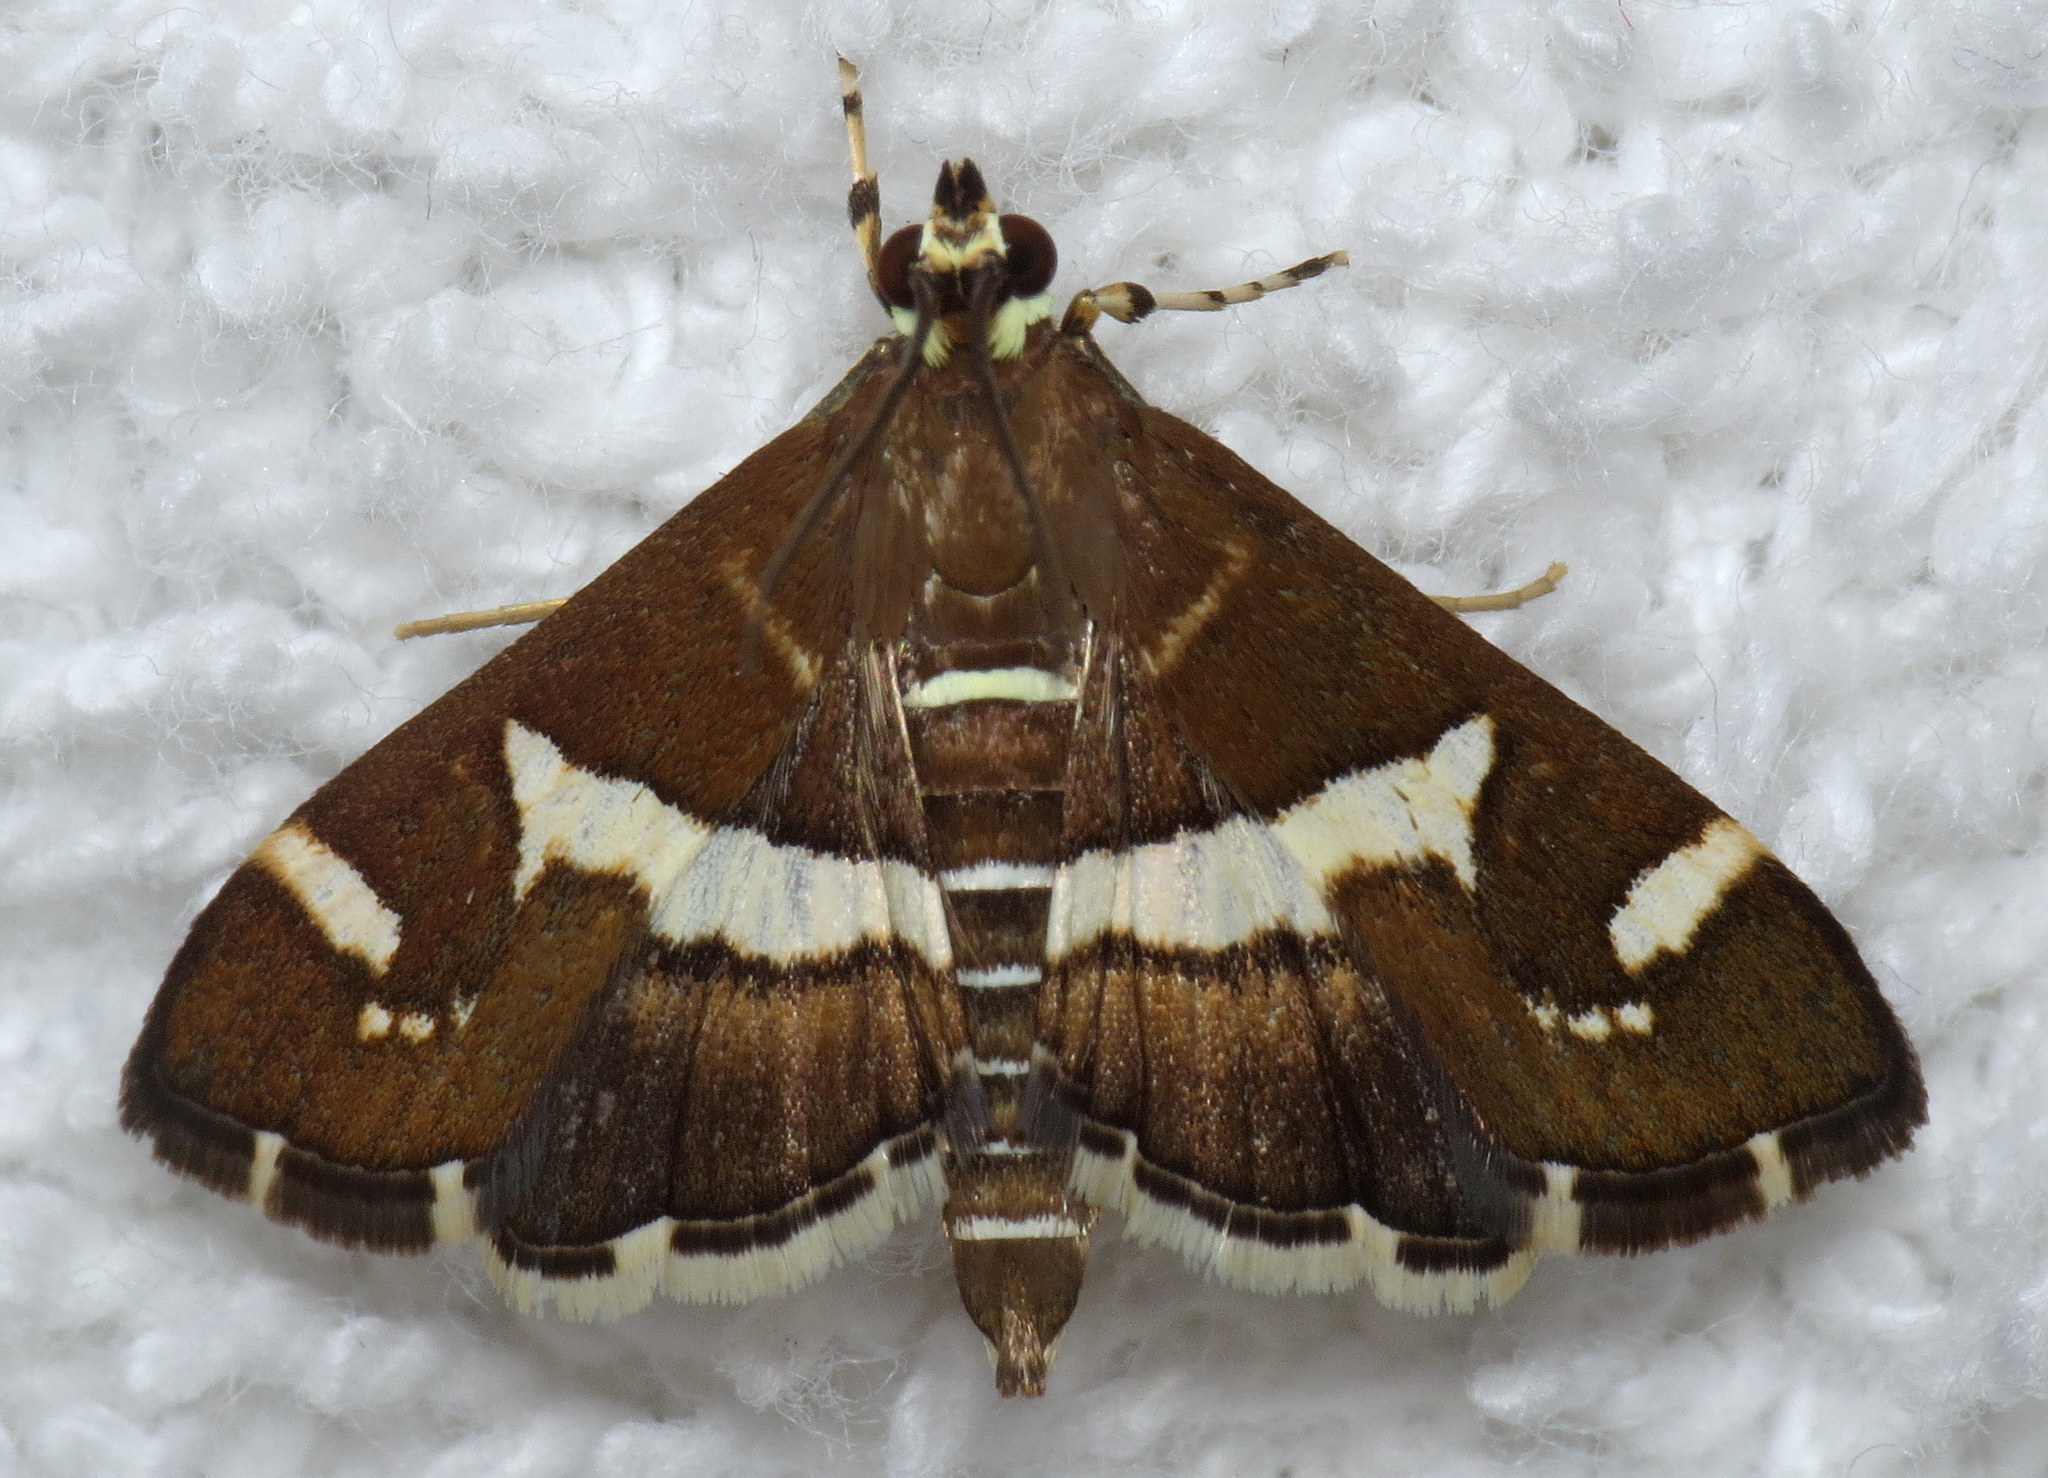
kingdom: Animalia
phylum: Arthropoda
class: Insecta
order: Lepidoptera
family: Crambidae
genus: Spoladea
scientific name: Spoladea recurvalis
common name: Beet webworm moth
